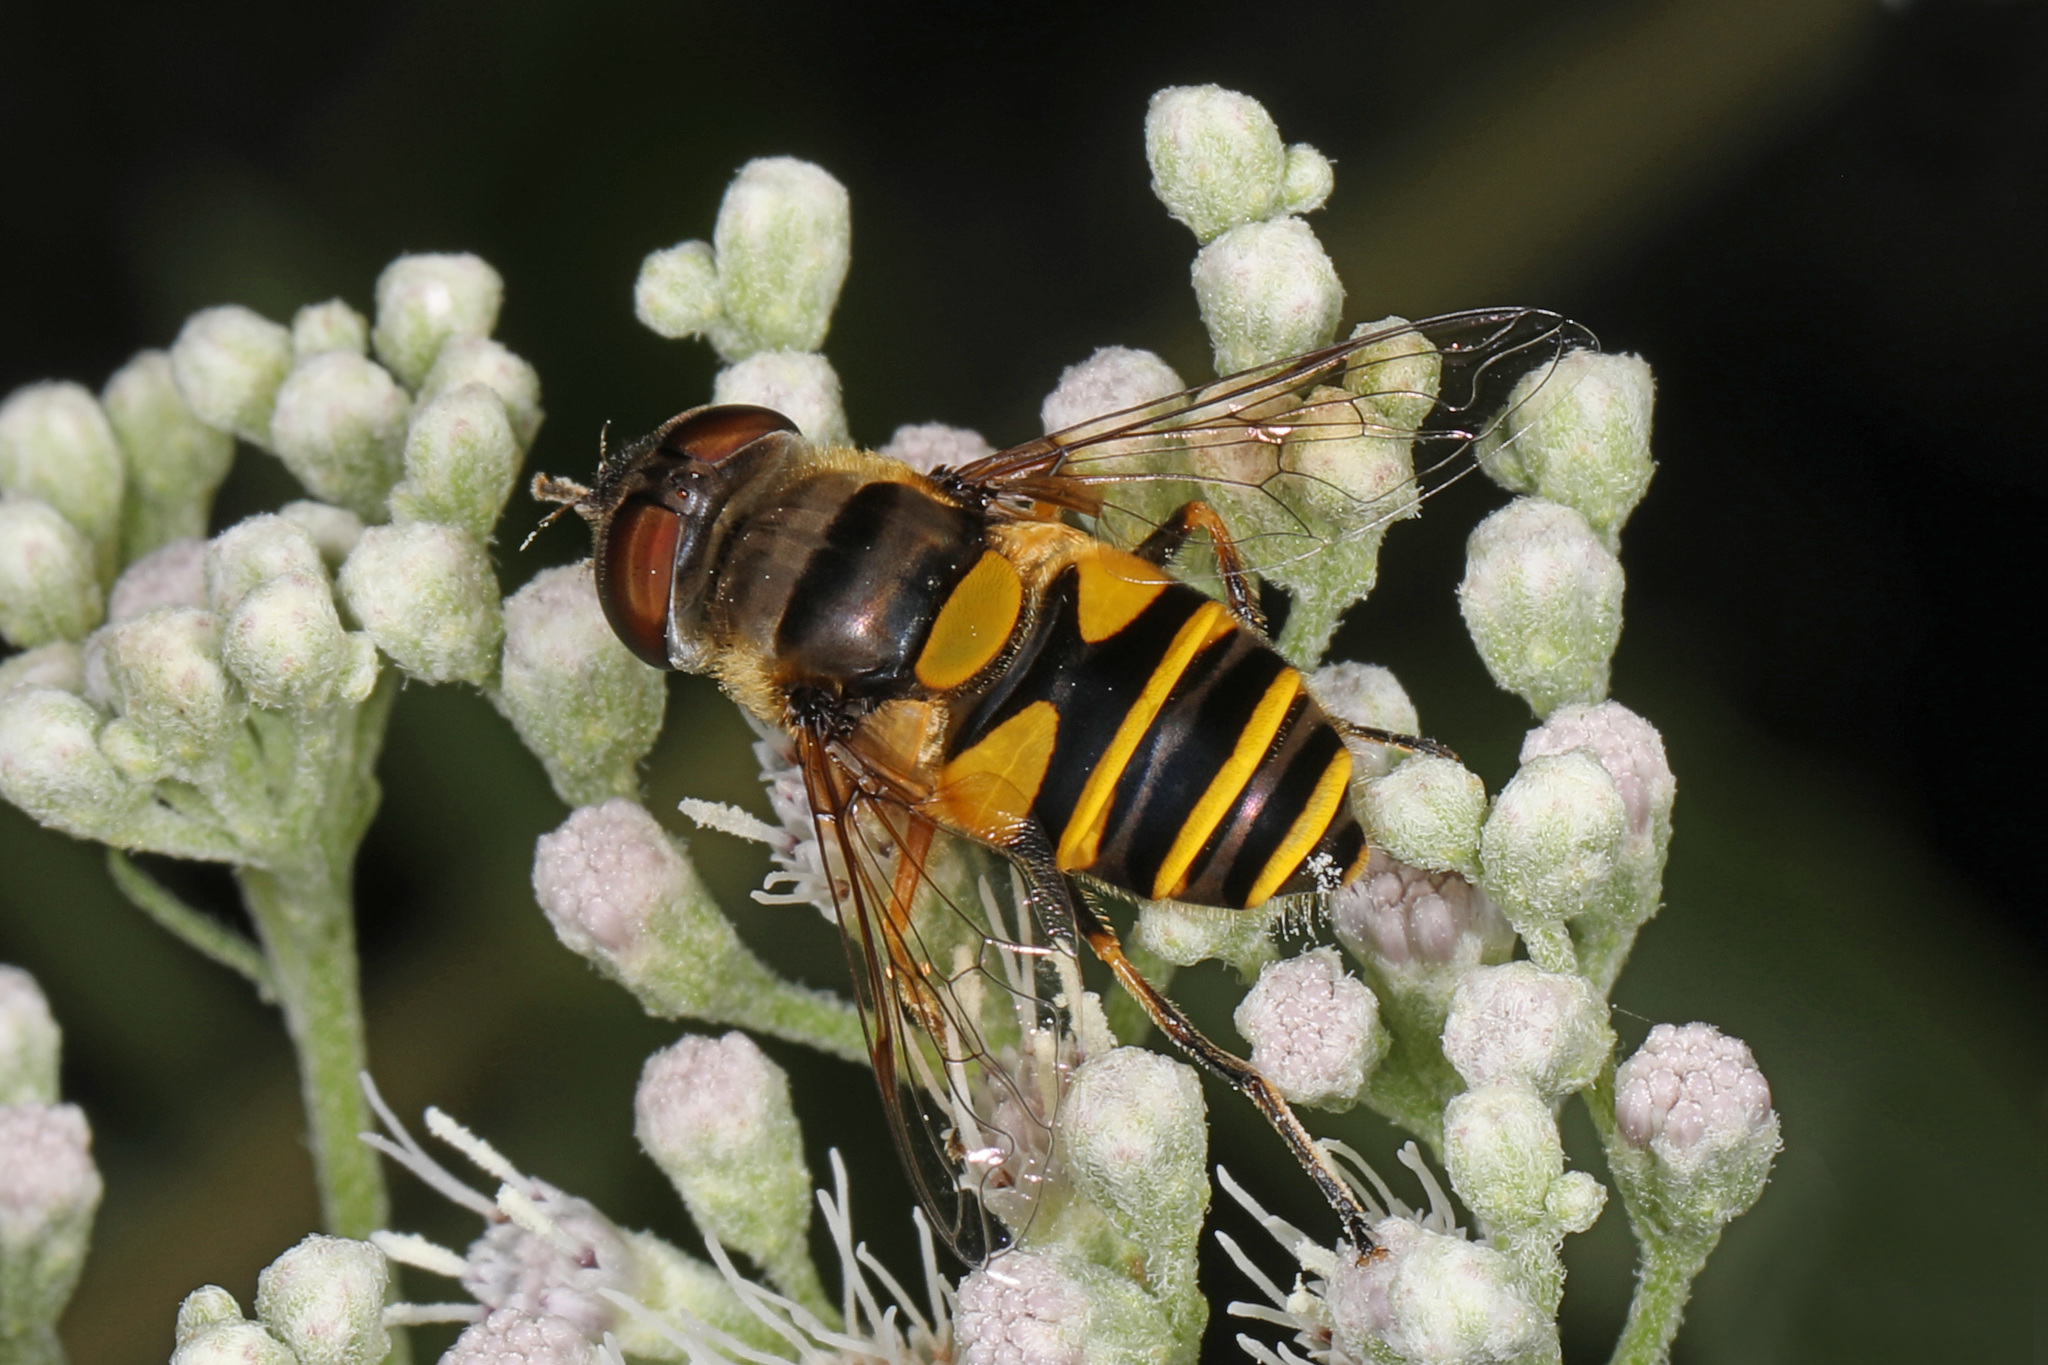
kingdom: Animalia
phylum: Arthropoda
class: Insecta
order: Diptera
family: Syrphidae
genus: Eristalis
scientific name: Eristalis transversa
